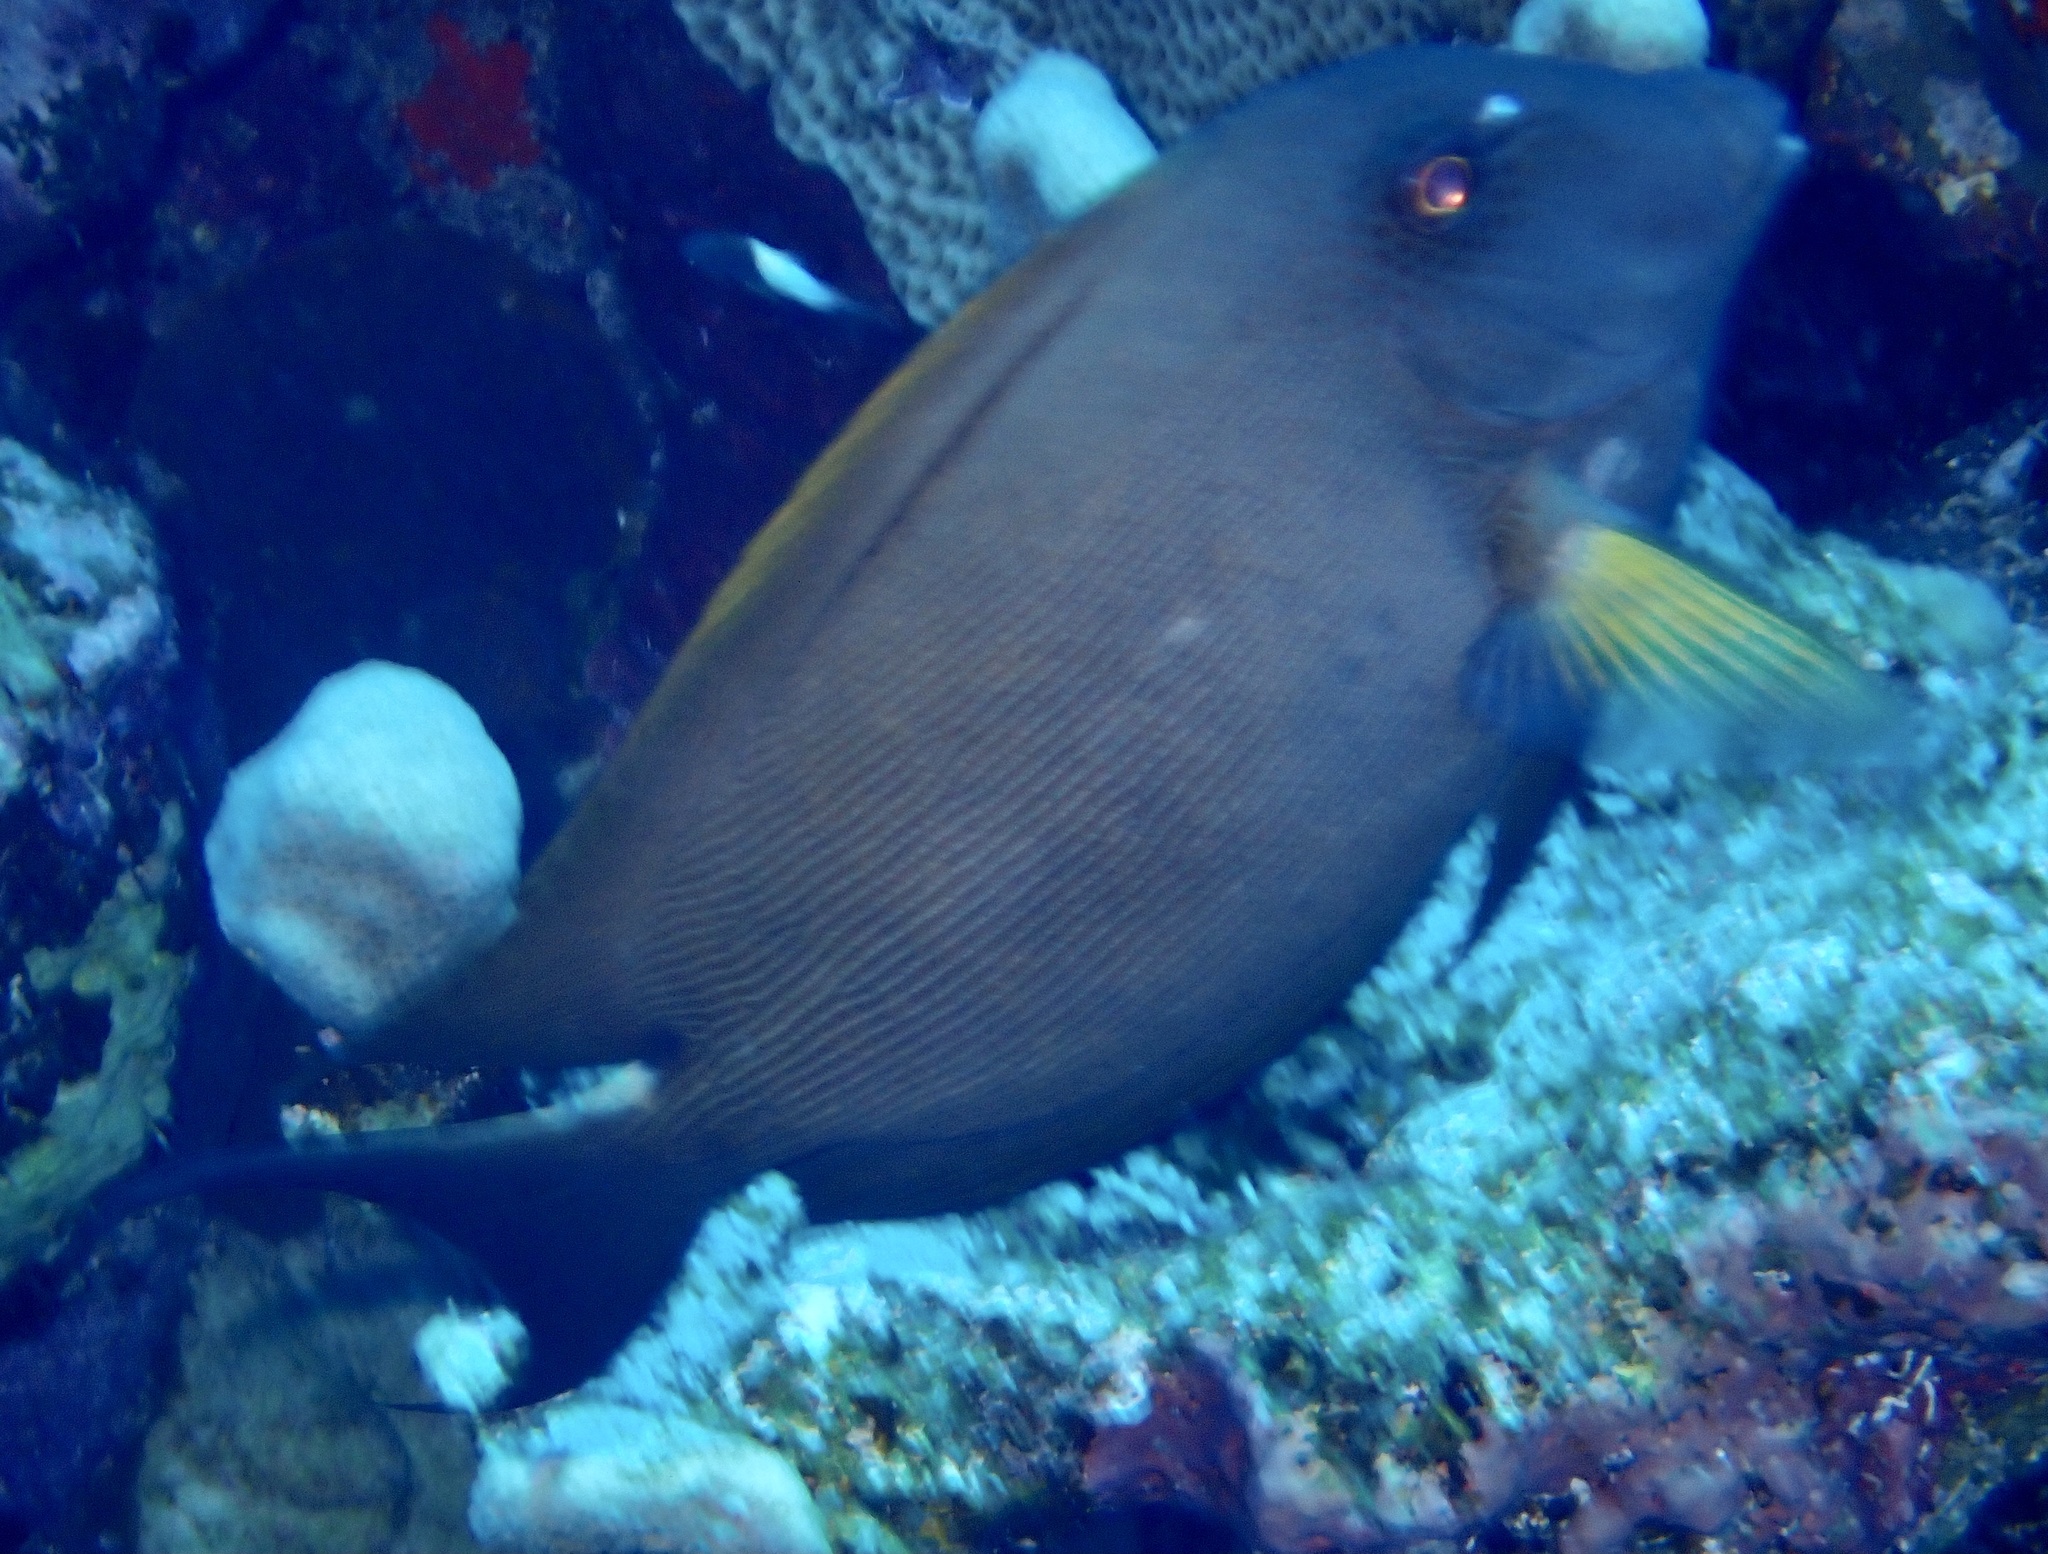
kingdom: Animalia
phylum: Chordata
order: Perciformes
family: Acanthuridae
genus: Ctenochaetus
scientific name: Ctenochaetus striatus
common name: Bristle-toothed surgeonfish
